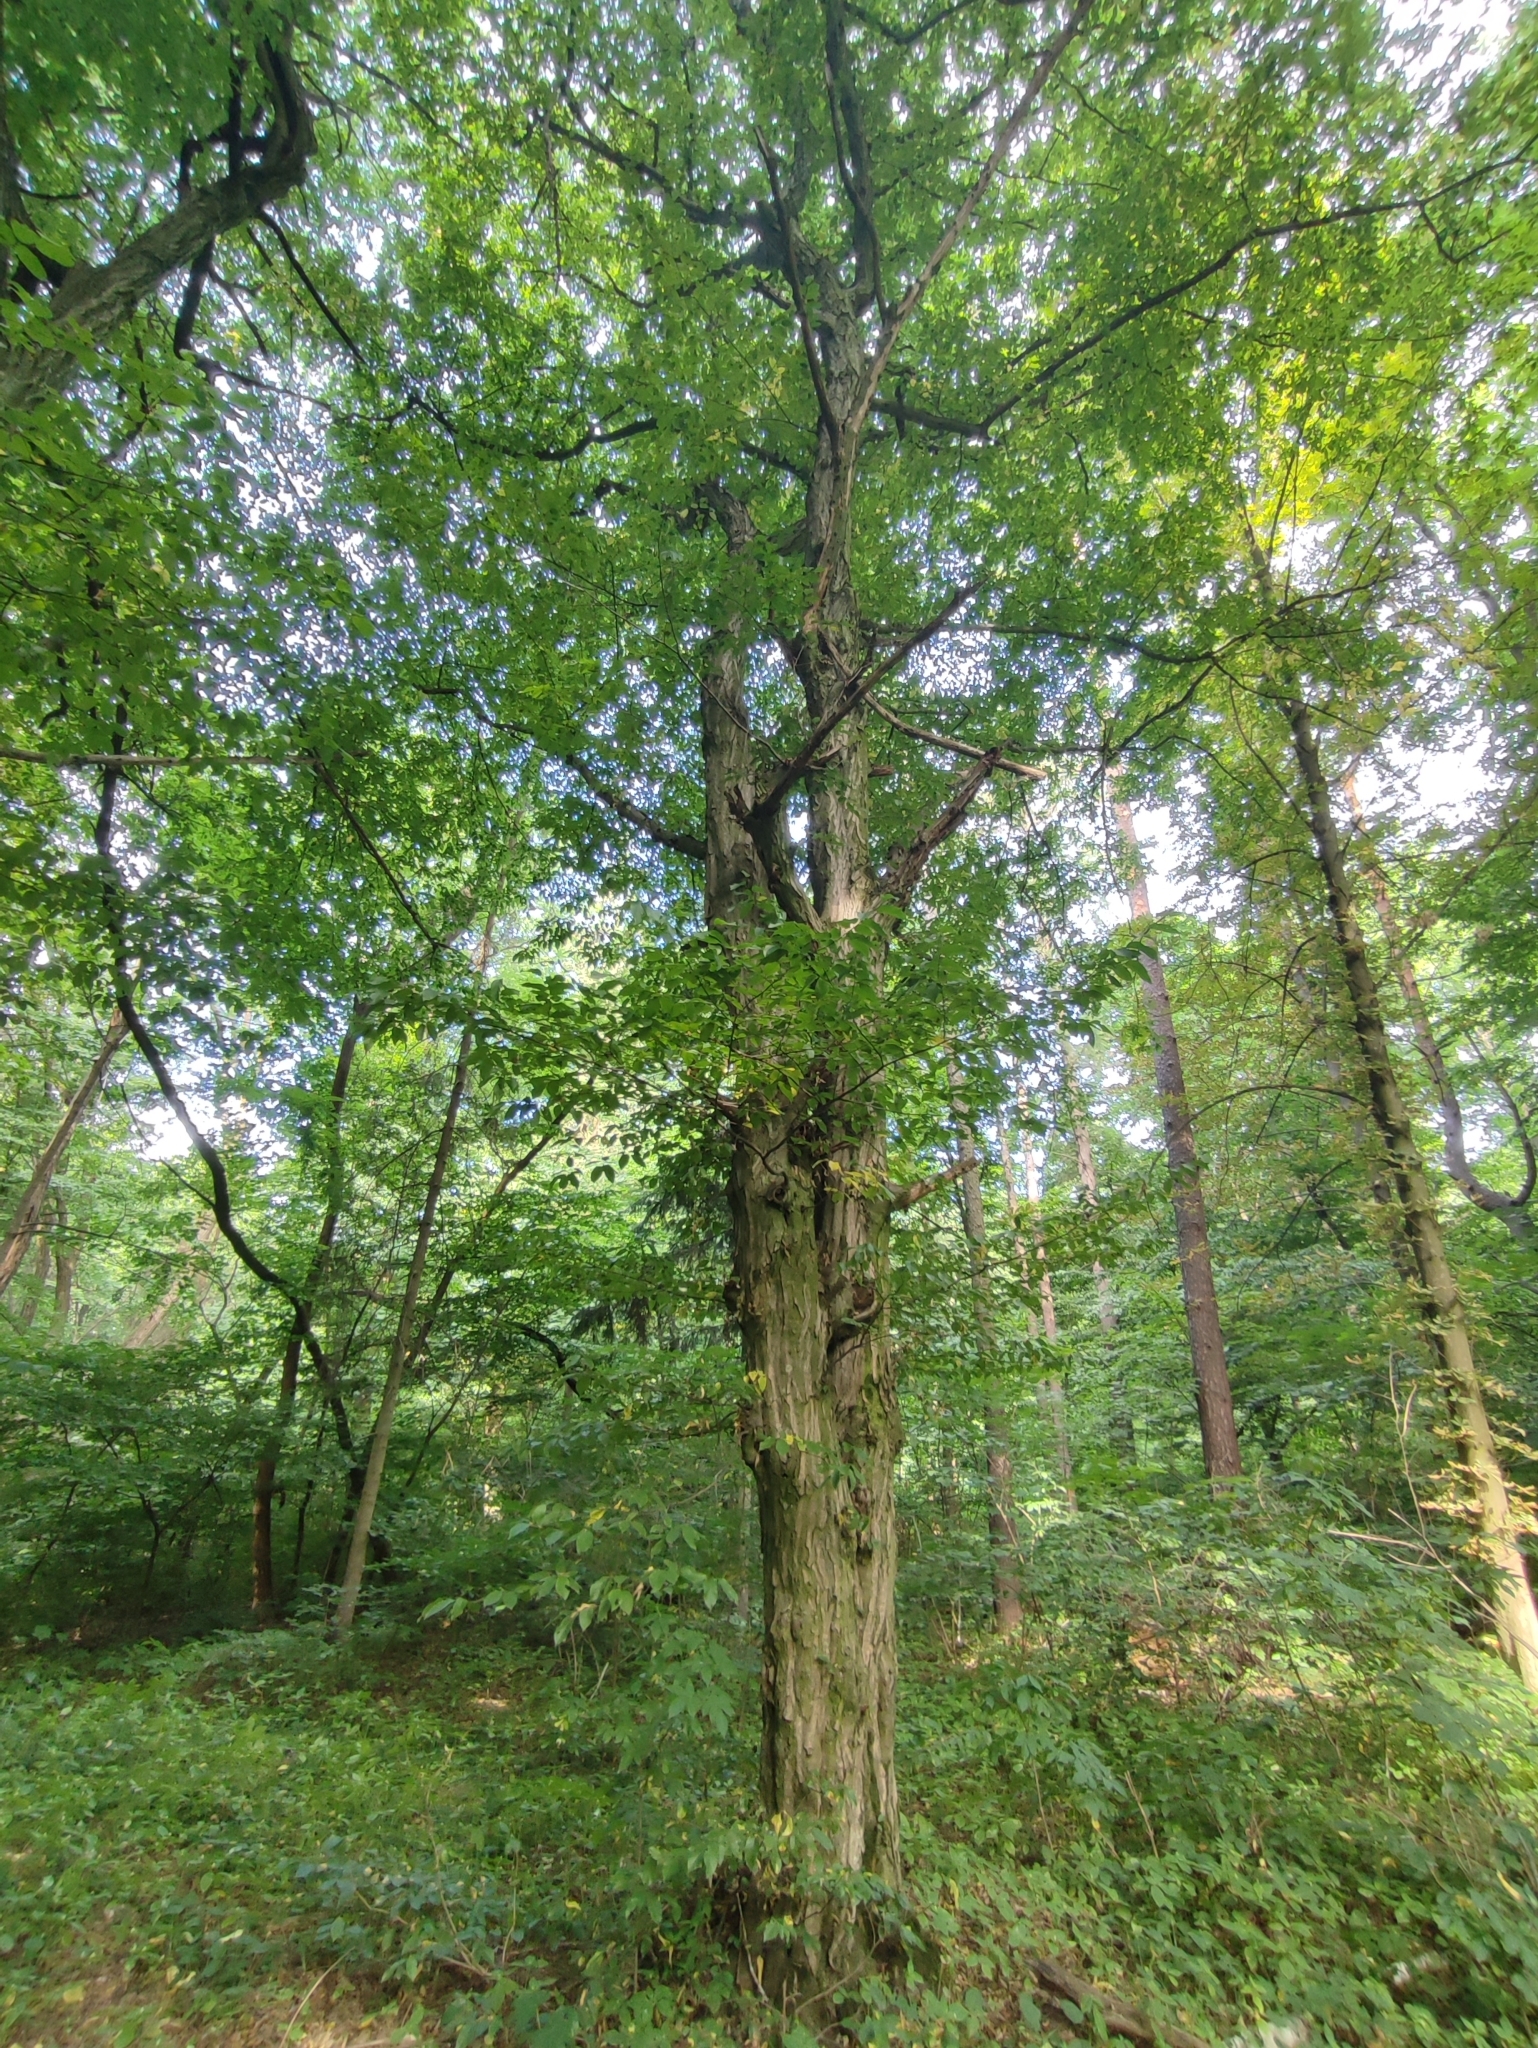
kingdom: Plantae
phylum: Tracheophyta
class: Magnoliopsida
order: Fagales
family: Betulaceae
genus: Carpinus
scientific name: Carpinus betulus
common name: Hornbeam
